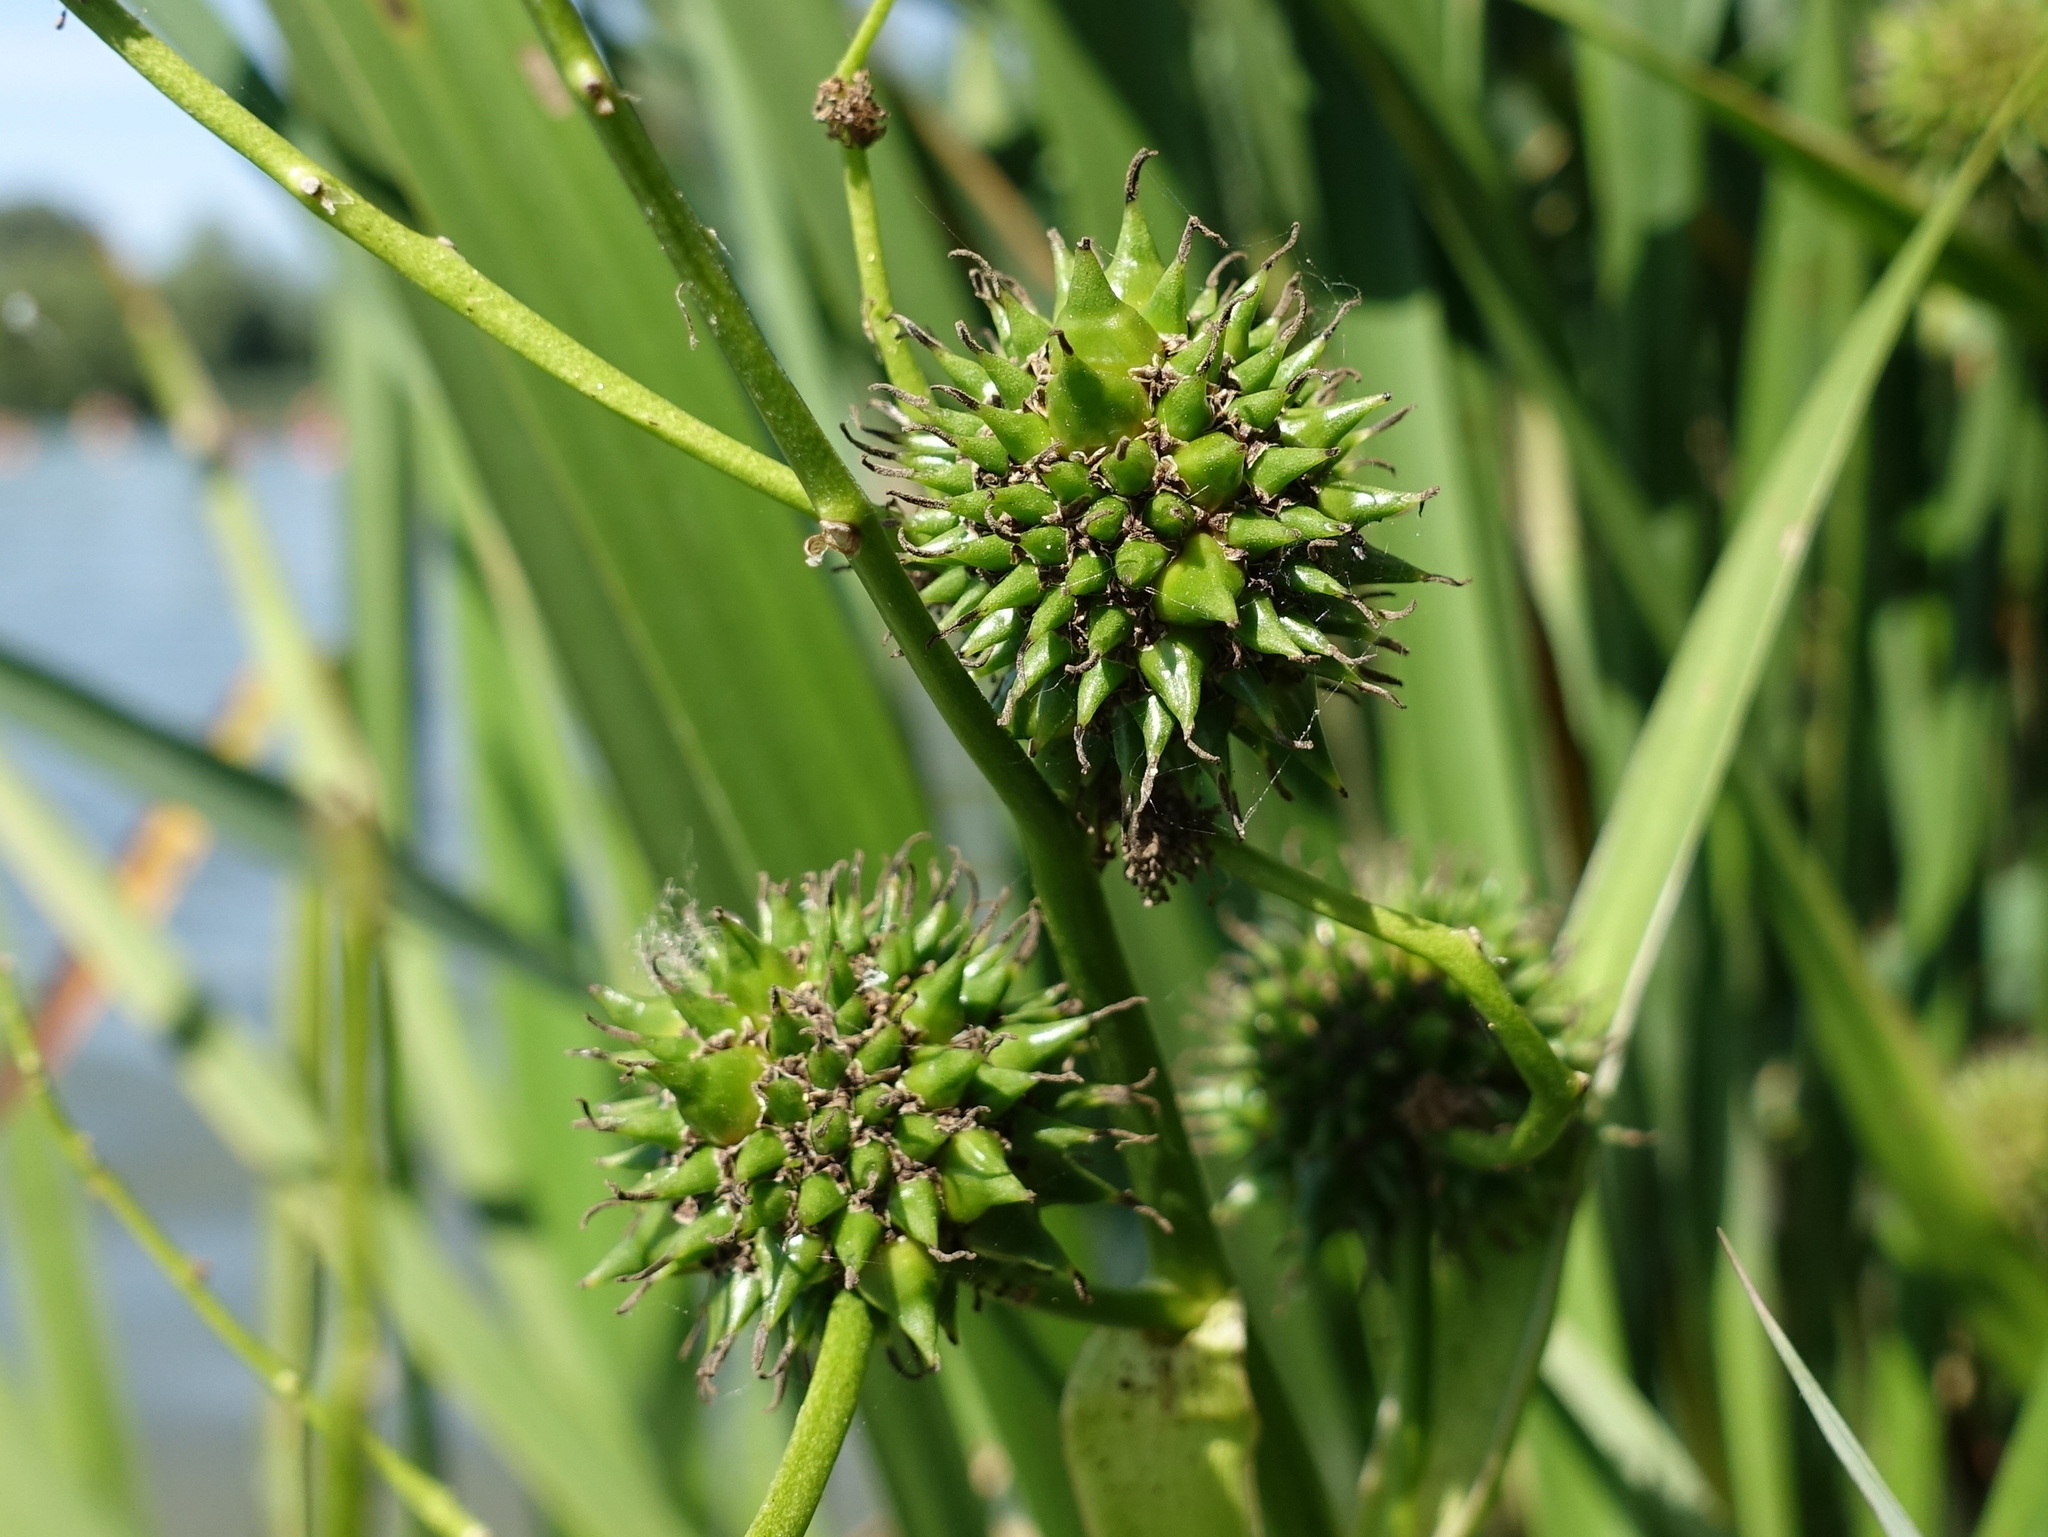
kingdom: Plantae
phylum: Tracheophyta
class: Liliopsida
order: Poales
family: Typhaceae
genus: Sparganium
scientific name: Sparganium erectum
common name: Branched bur-reed
